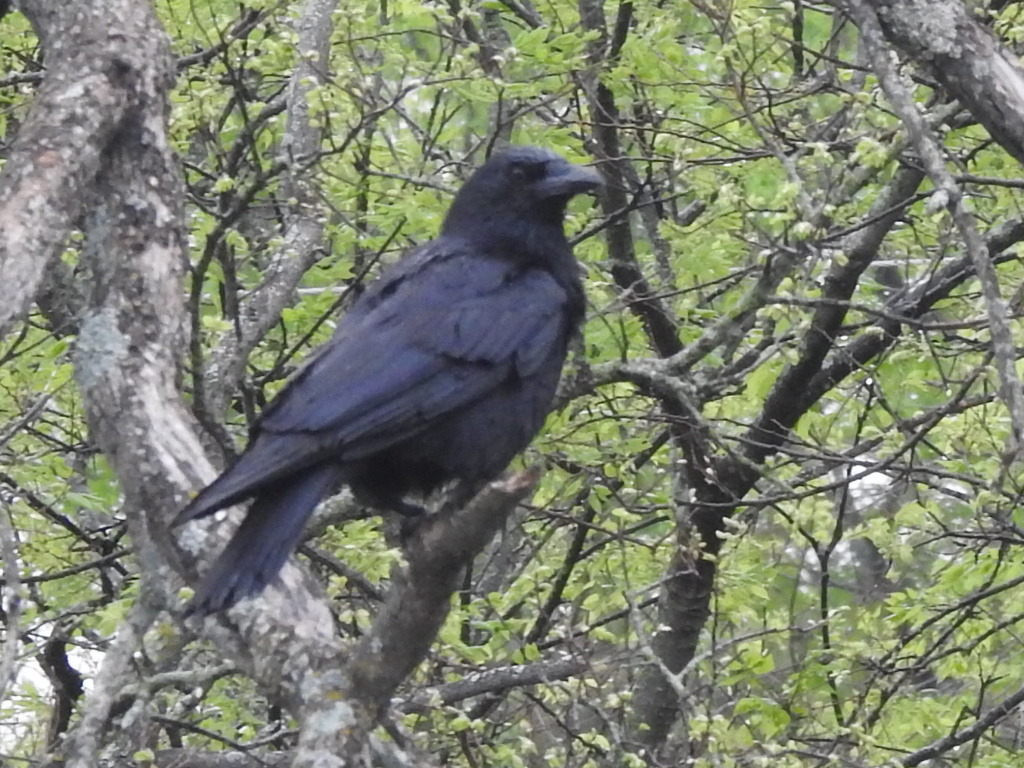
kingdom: Animalia
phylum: Chordata
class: Aves
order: Passeriformes
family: Corvidae
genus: Corvus
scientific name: Corvus brachyrhynchos
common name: American crow
